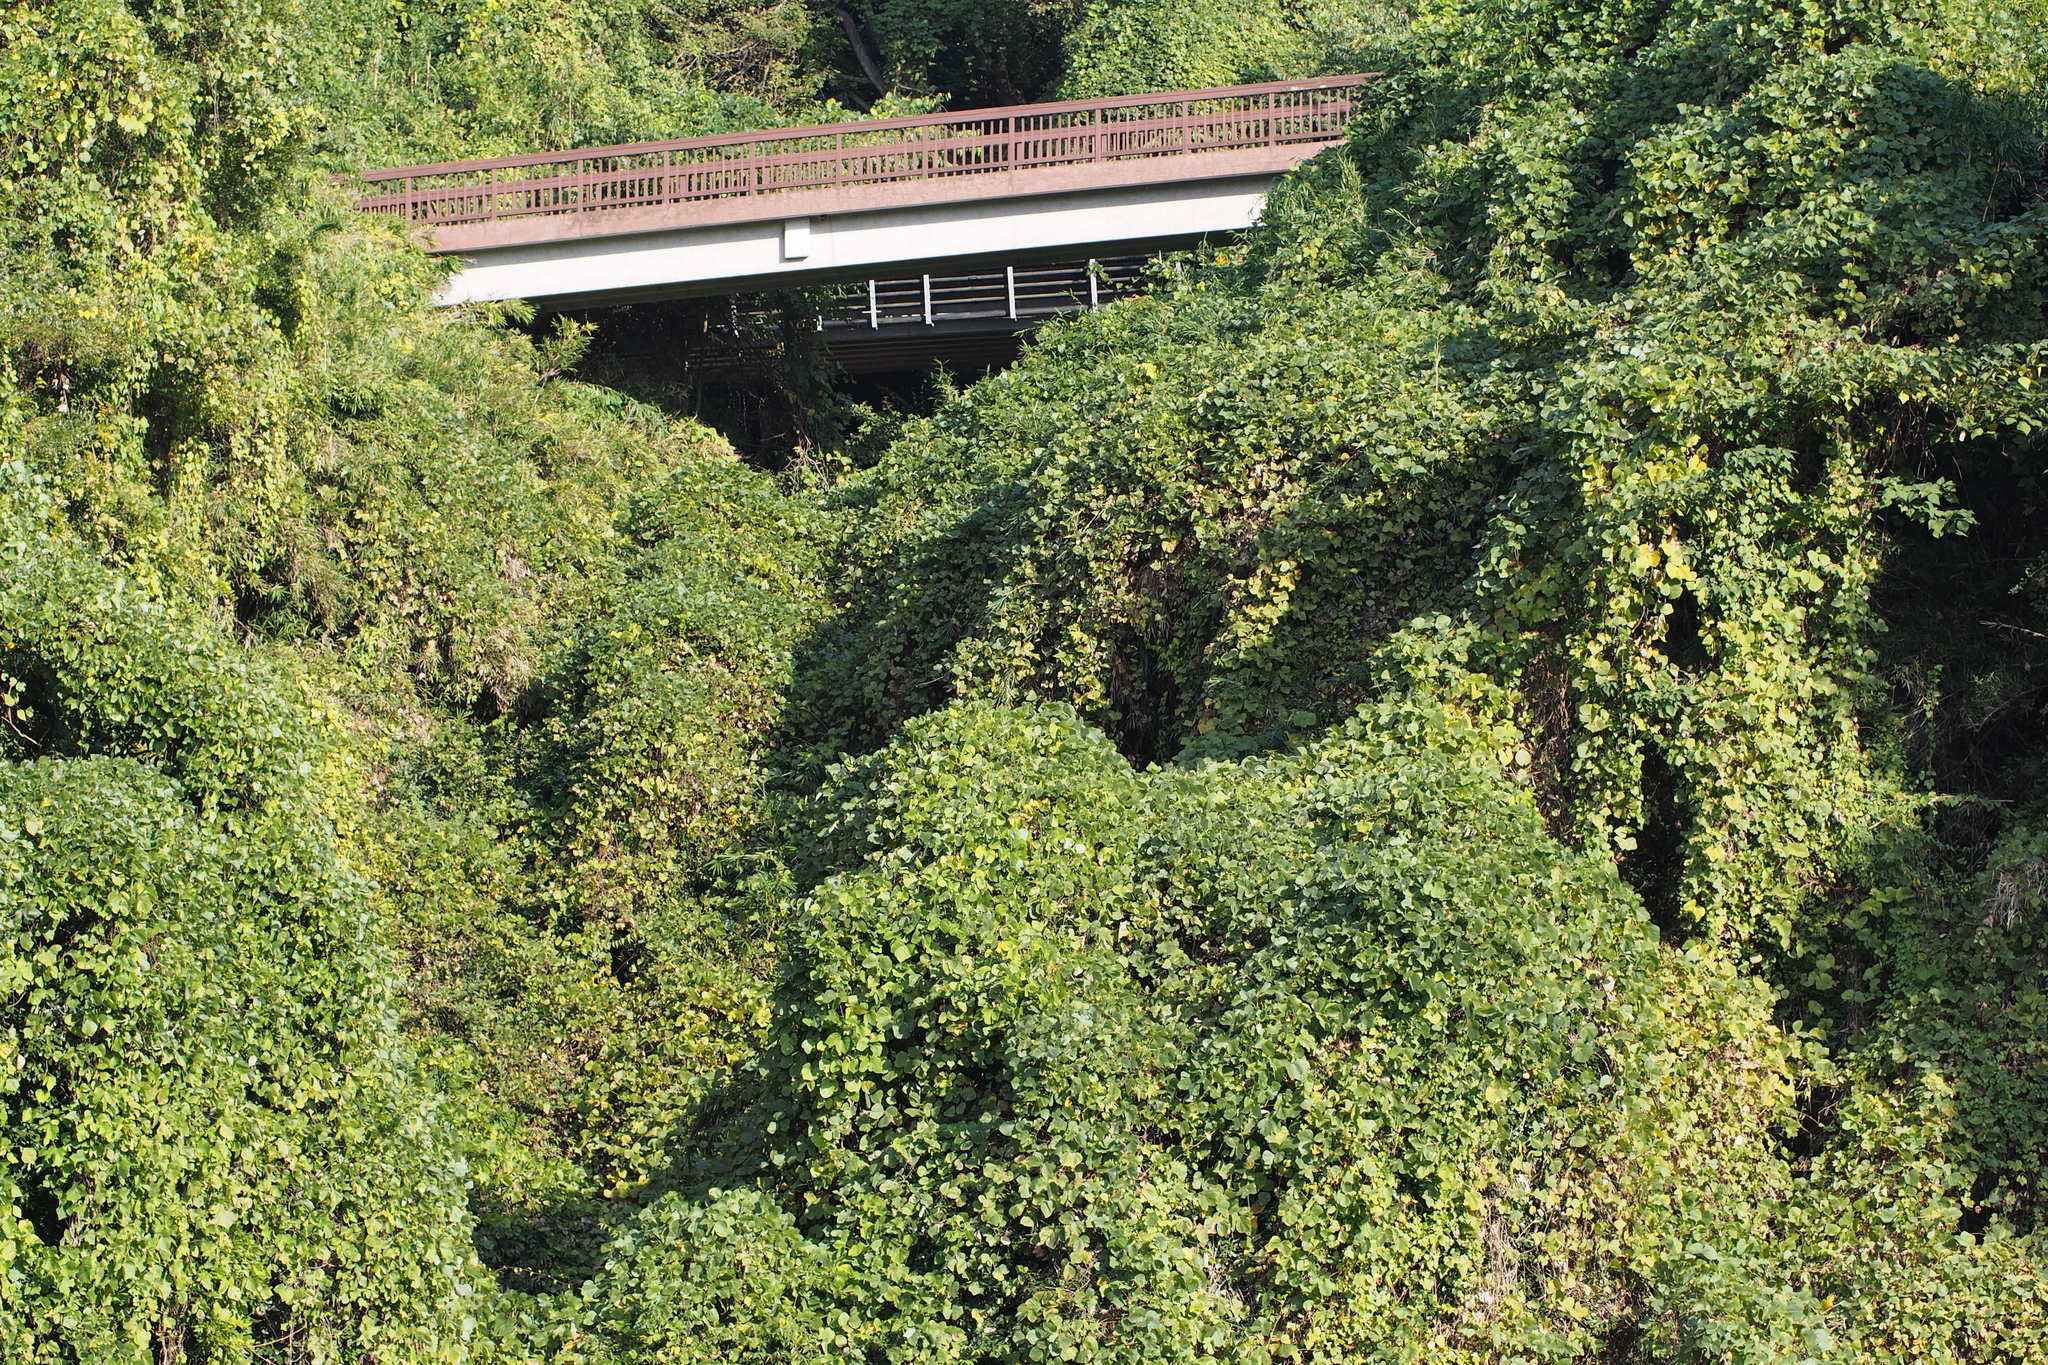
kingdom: Plantae
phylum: Tracheophyta
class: Magnoliopsida
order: Fabales
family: Fabaceae
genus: Pueraria
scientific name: Pueraria montana
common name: Kudzu
